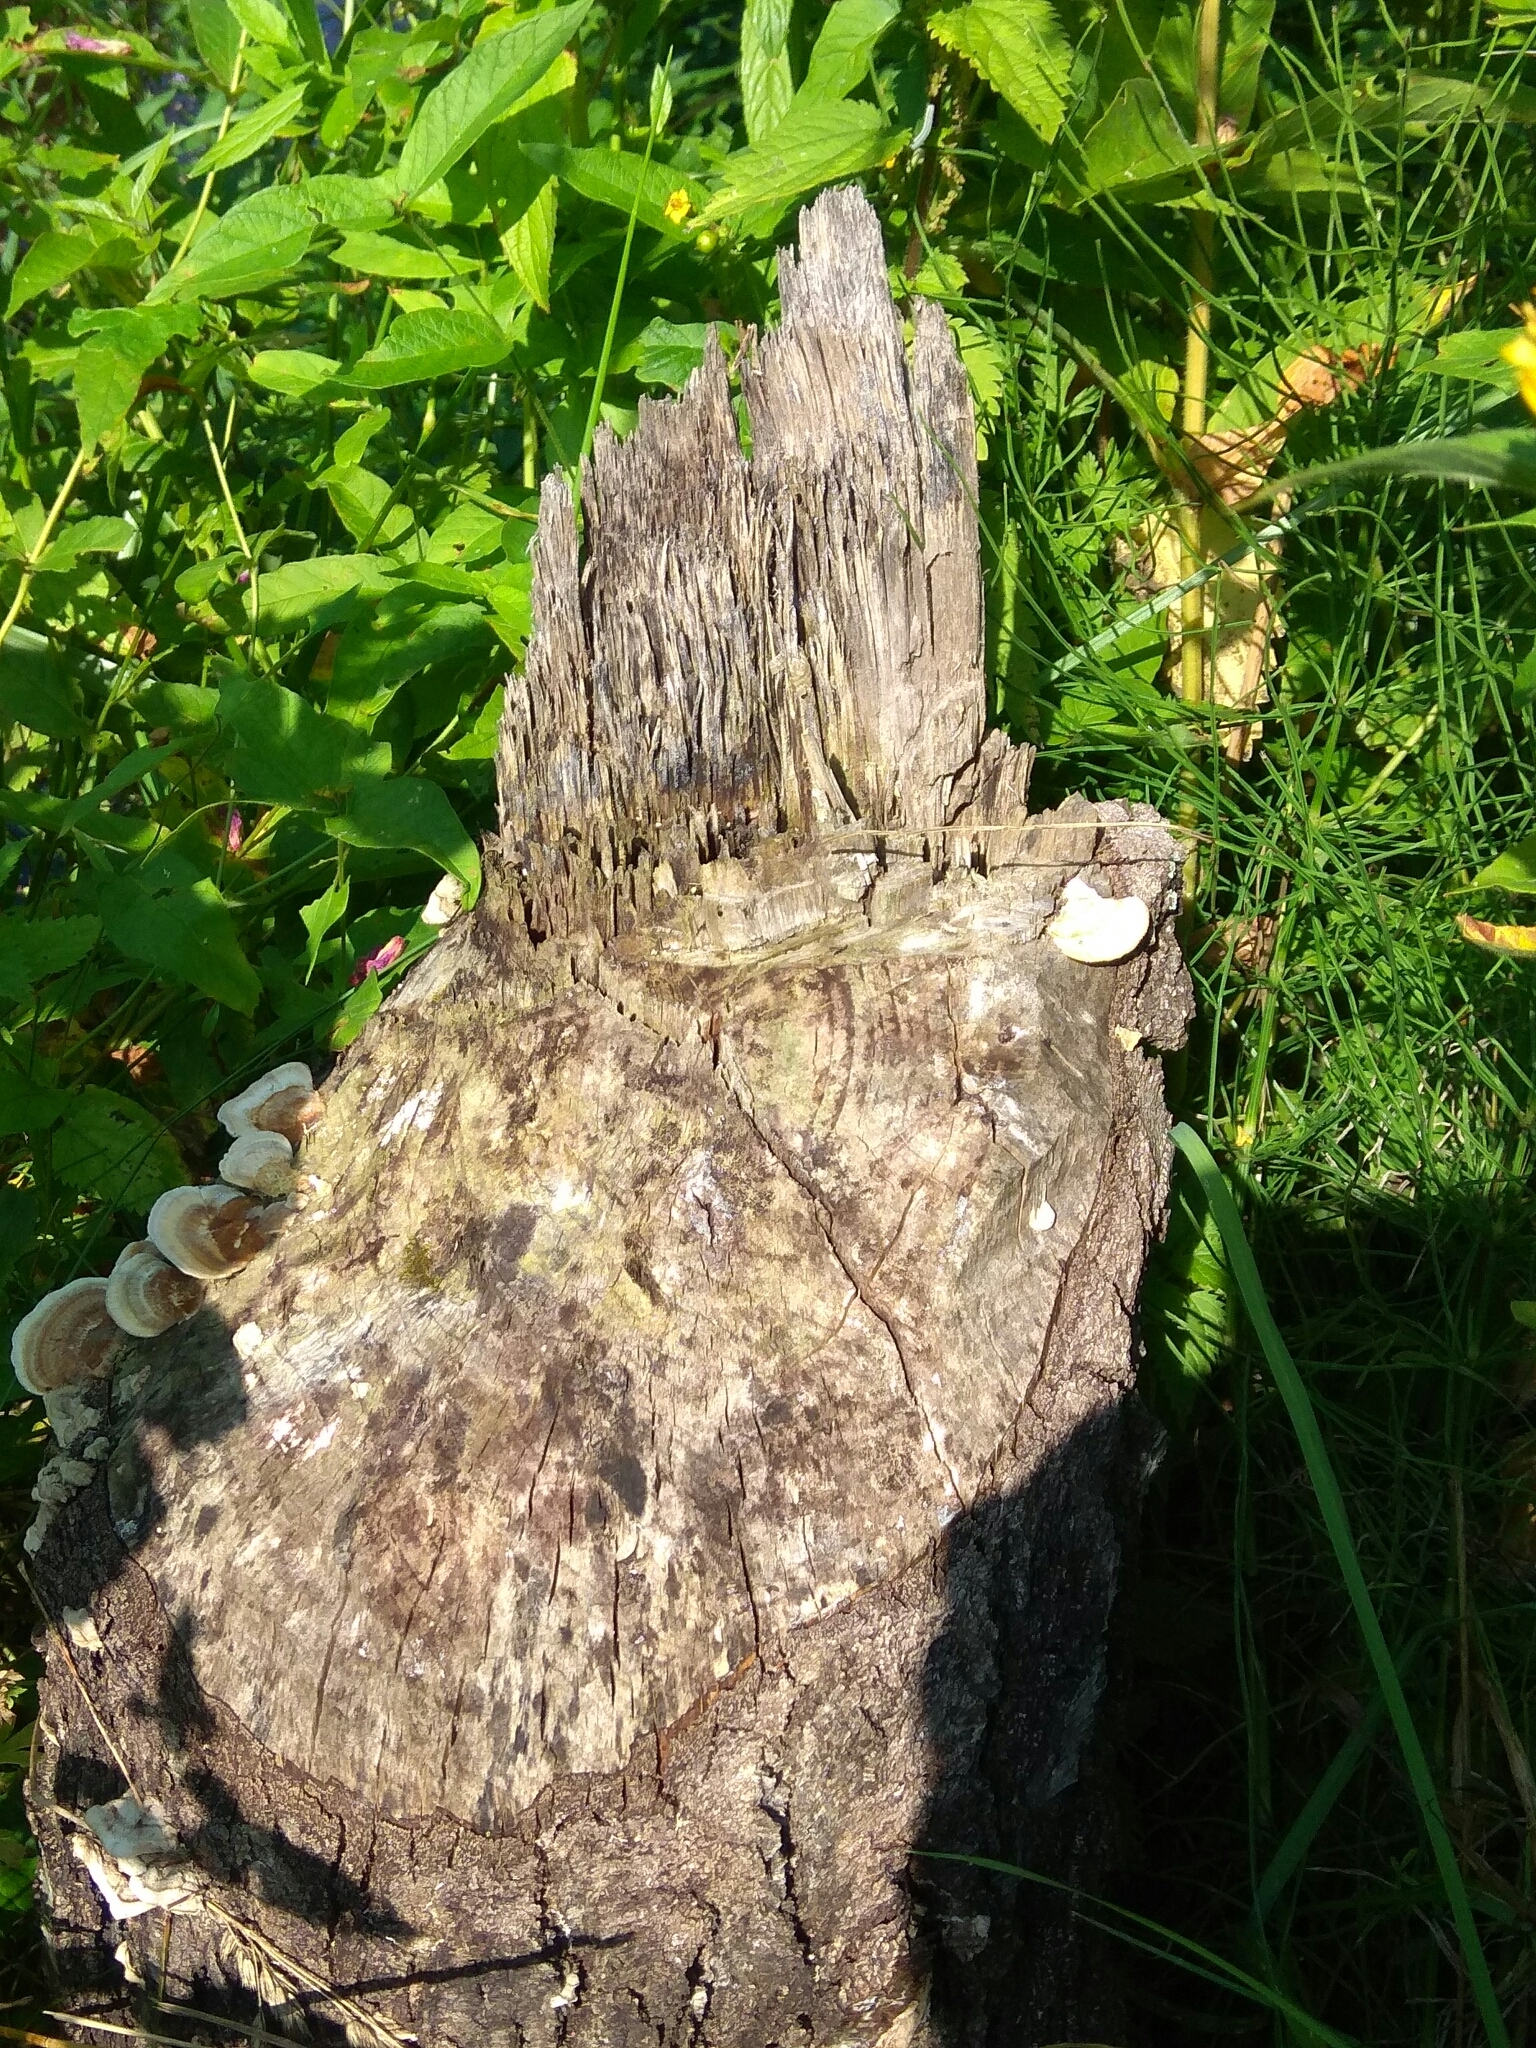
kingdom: Animalia
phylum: Chordata
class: Mammalia
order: Rodentia
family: Castoridae
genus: Castor
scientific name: Castor fiber
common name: Eurasian beaver
